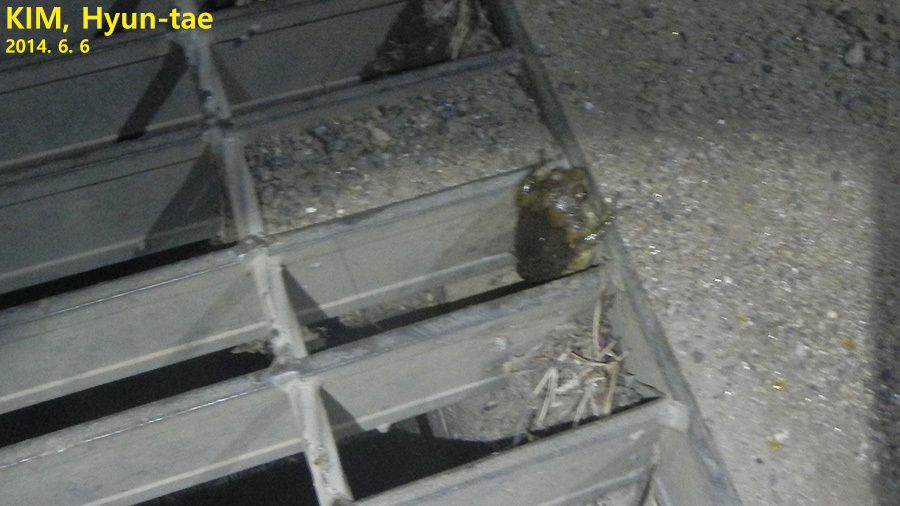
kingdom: Animalia
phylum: Chordata
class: Amphibia
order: Anura
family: Microhylidae
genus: Kaloula
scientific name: Kaloula borealis
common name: Boreal digging frog
